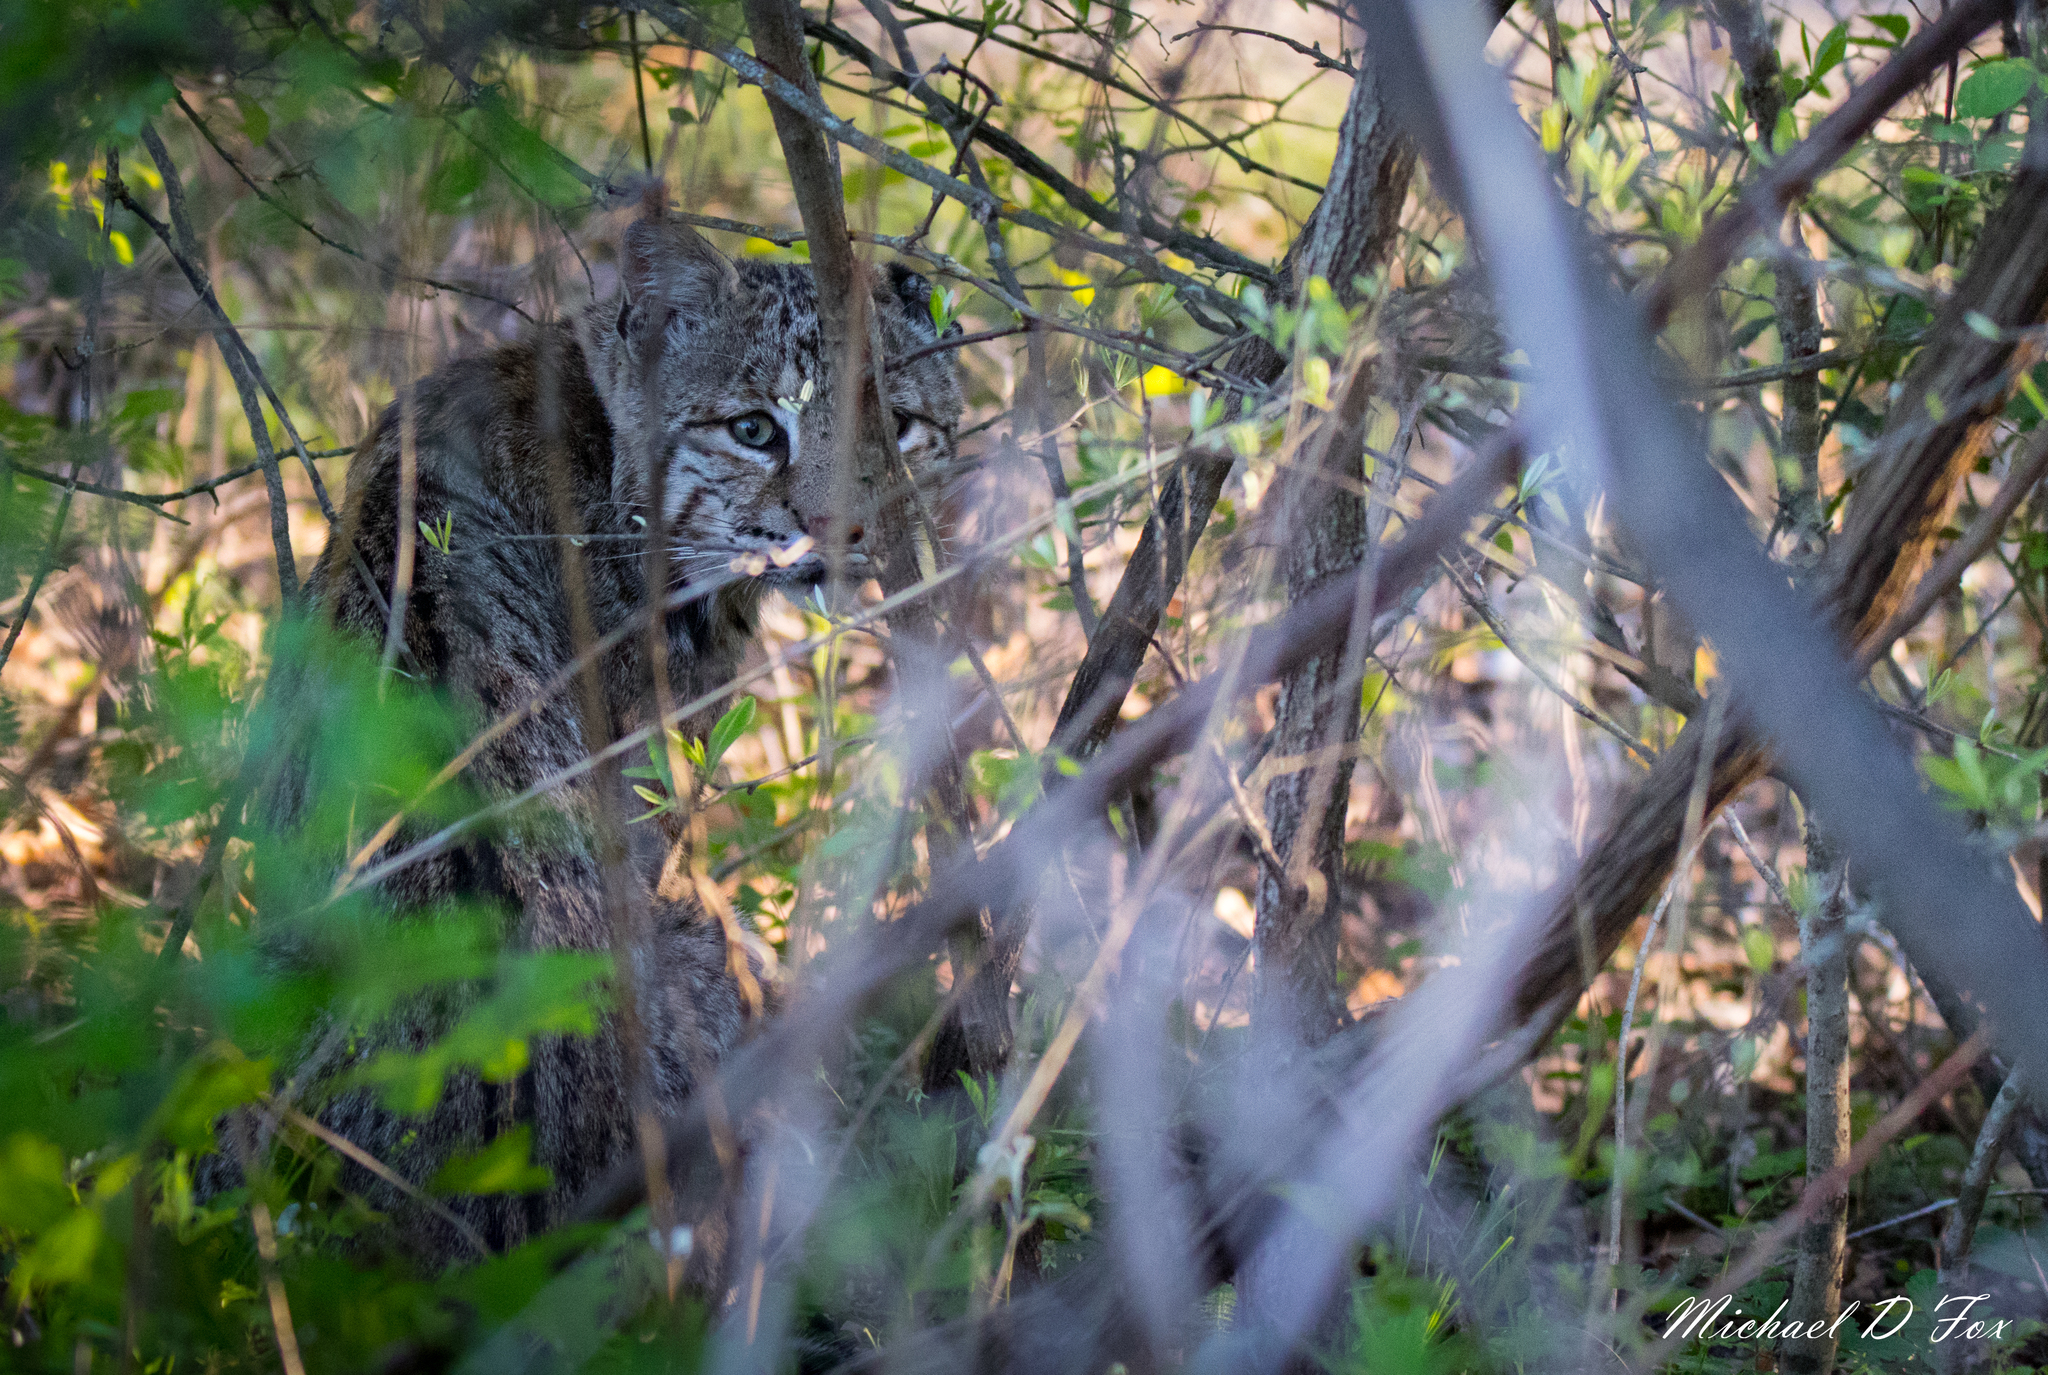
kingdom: Animalia
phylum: Chordata
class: Mammalia
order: Carnivora
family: Felidae
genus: Lynx
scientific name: Lynx rufus
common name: Bobcat
